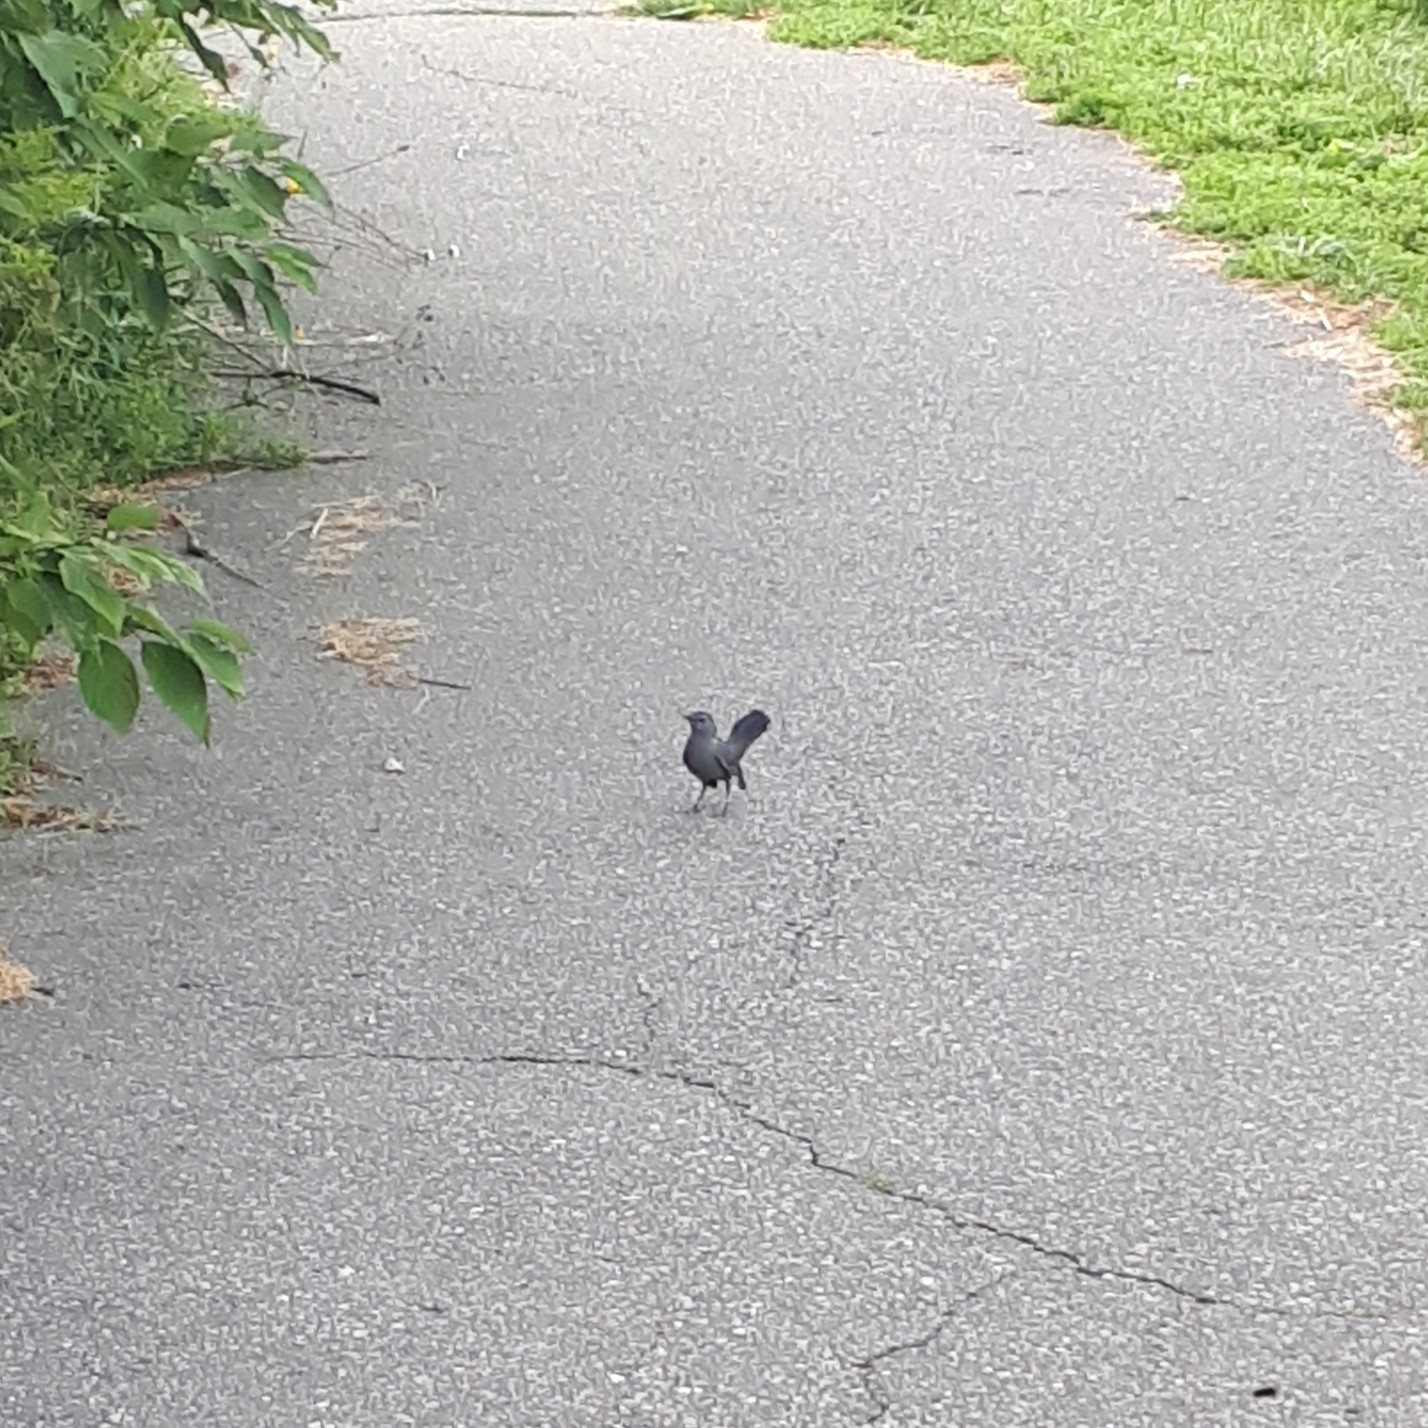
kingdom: Animalia
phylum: Chordata
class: Aves
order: Passeriformes
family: Mimidae
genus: Dumetella
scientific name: Dumetella carolinensis
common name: Gray catbird
